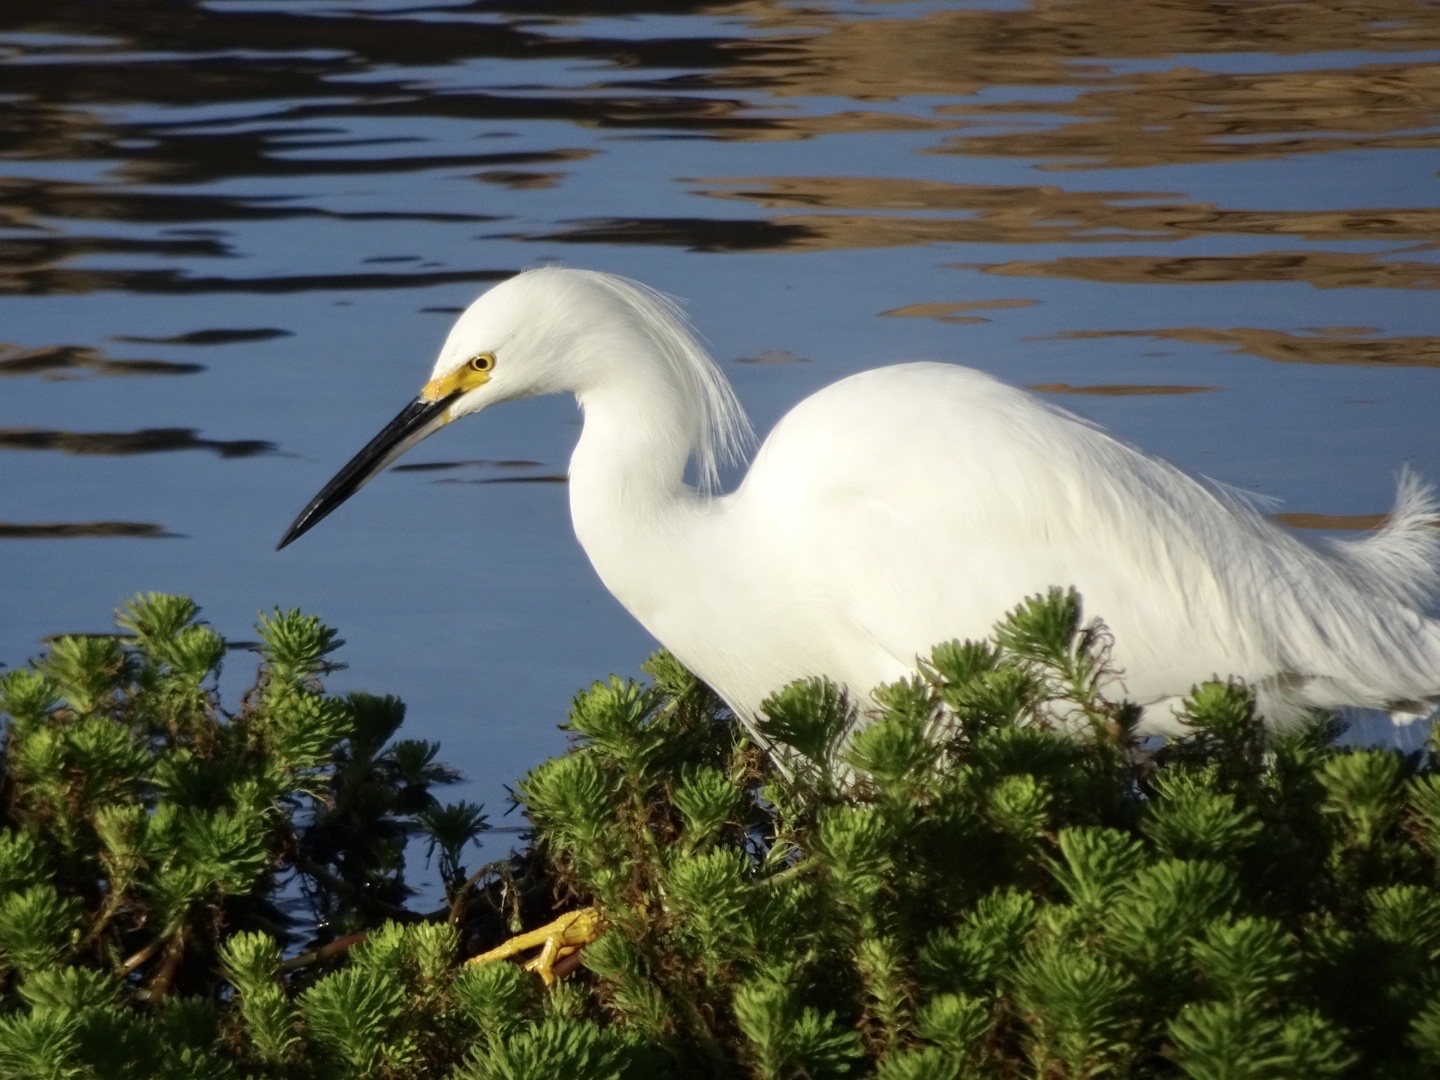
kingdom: Animalia
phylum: Chordata
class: Aves
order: Pelecaniformes
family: Ardeidae
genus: Egretta
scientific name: Egretta thula
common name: Snowy egret
